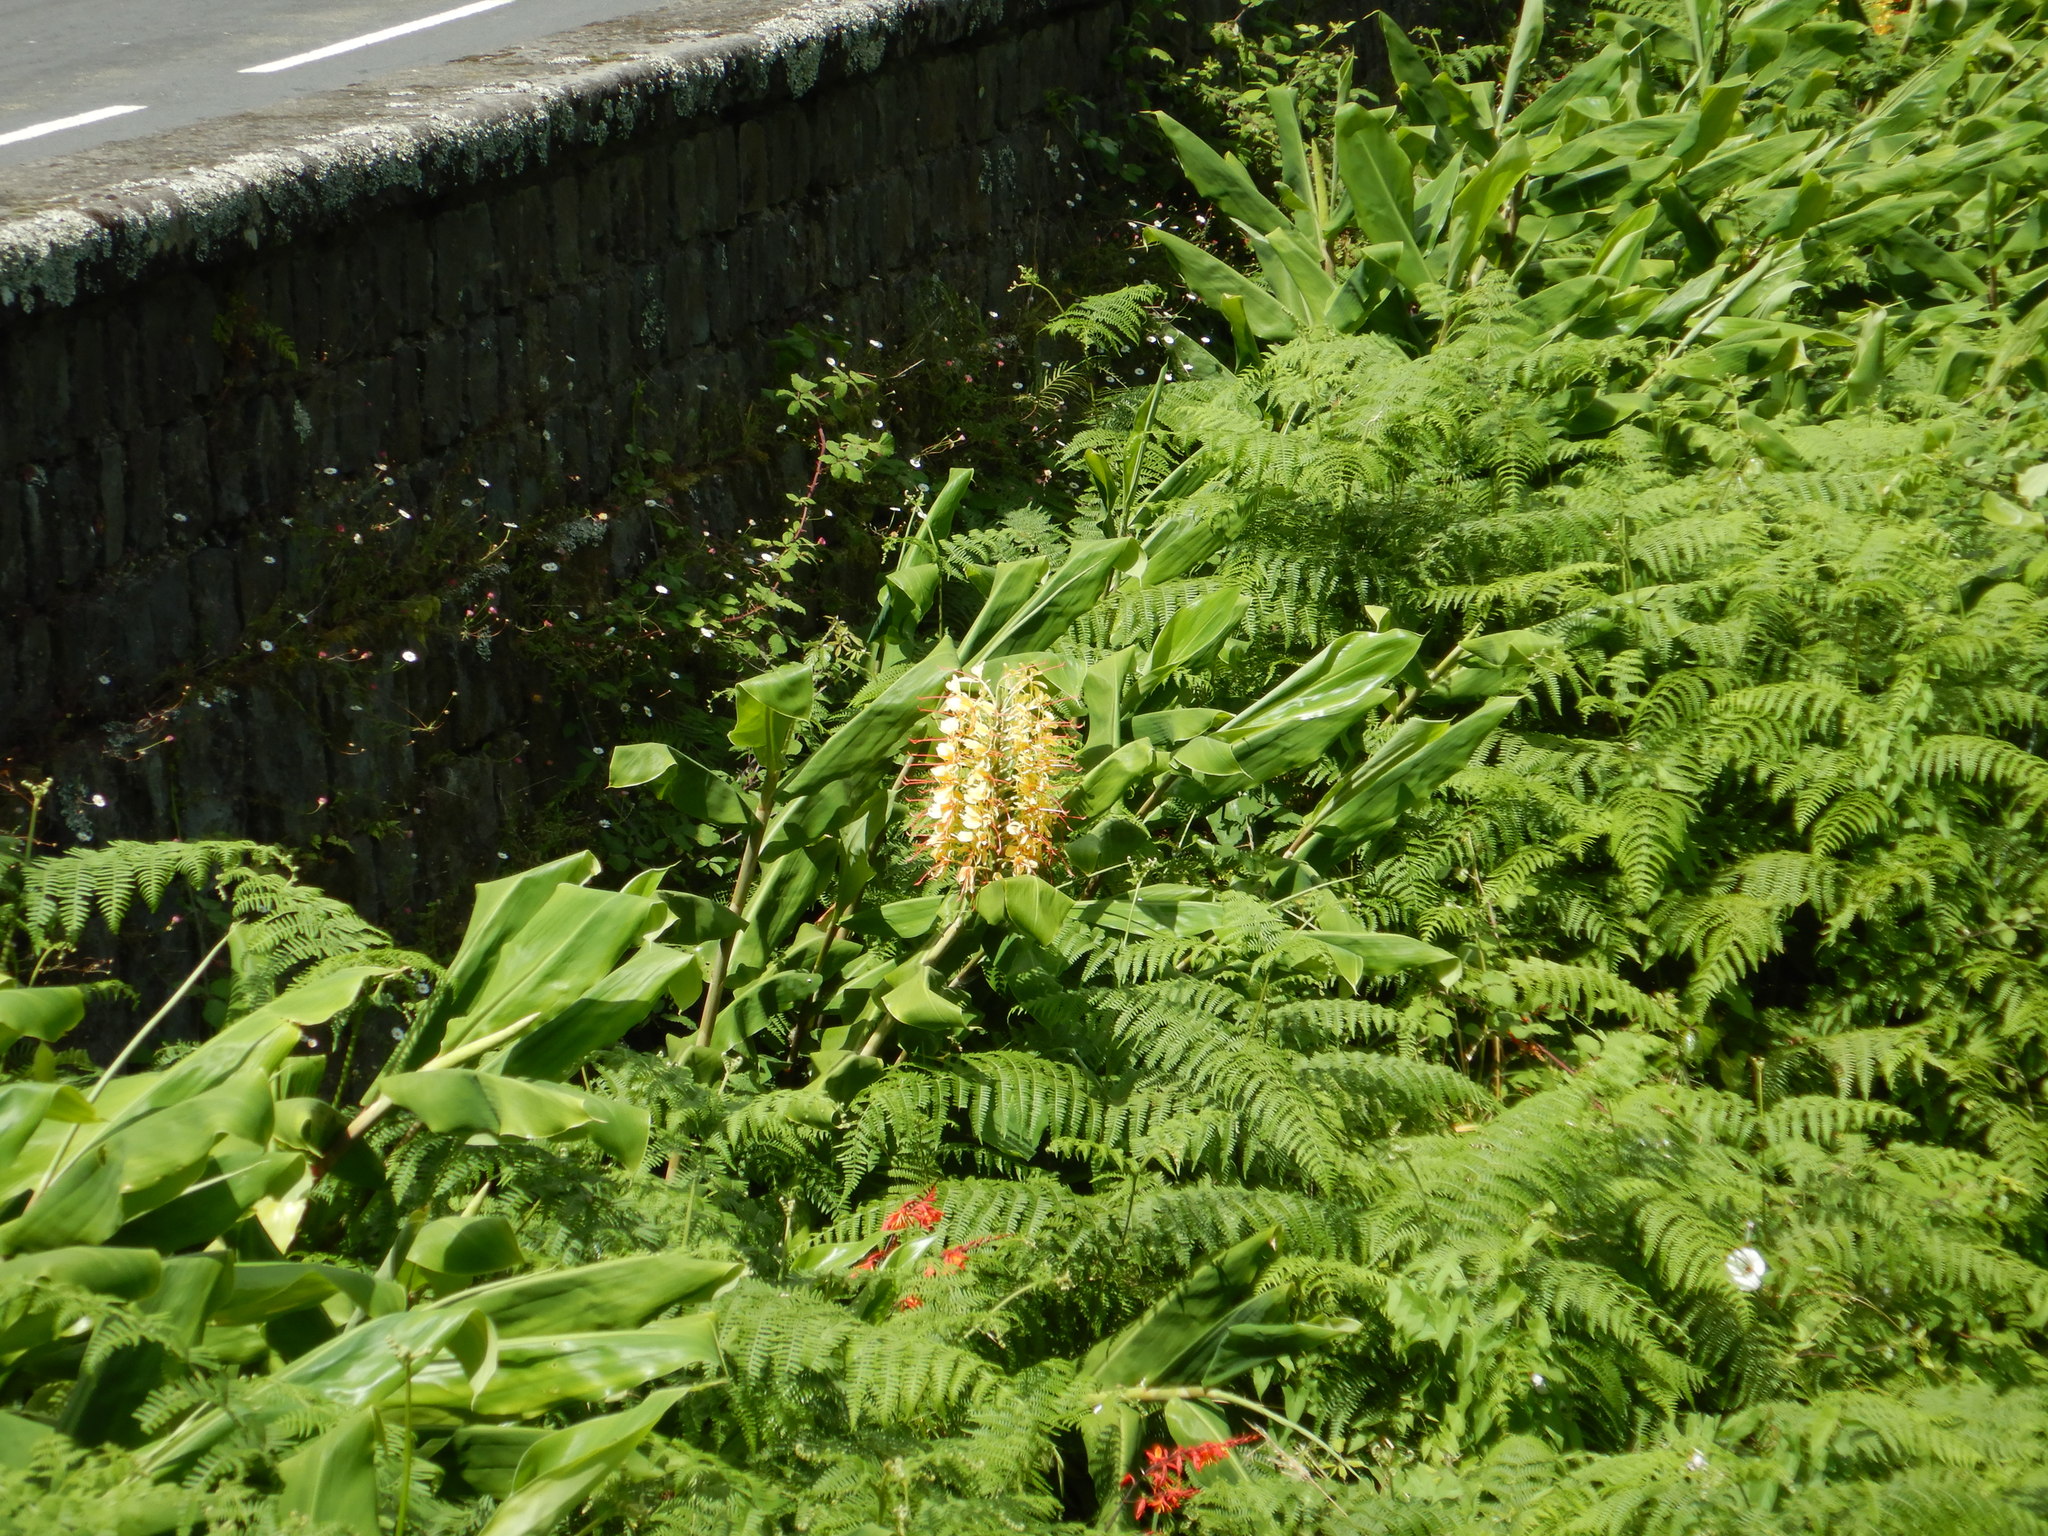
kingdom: Plantae
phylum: Tracheophyta
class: Liliopsida
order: Zingiberales
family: Zingiberaceae
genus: Hedychium
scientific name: Hedychium gardnerianum
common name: Himalayan ginger
